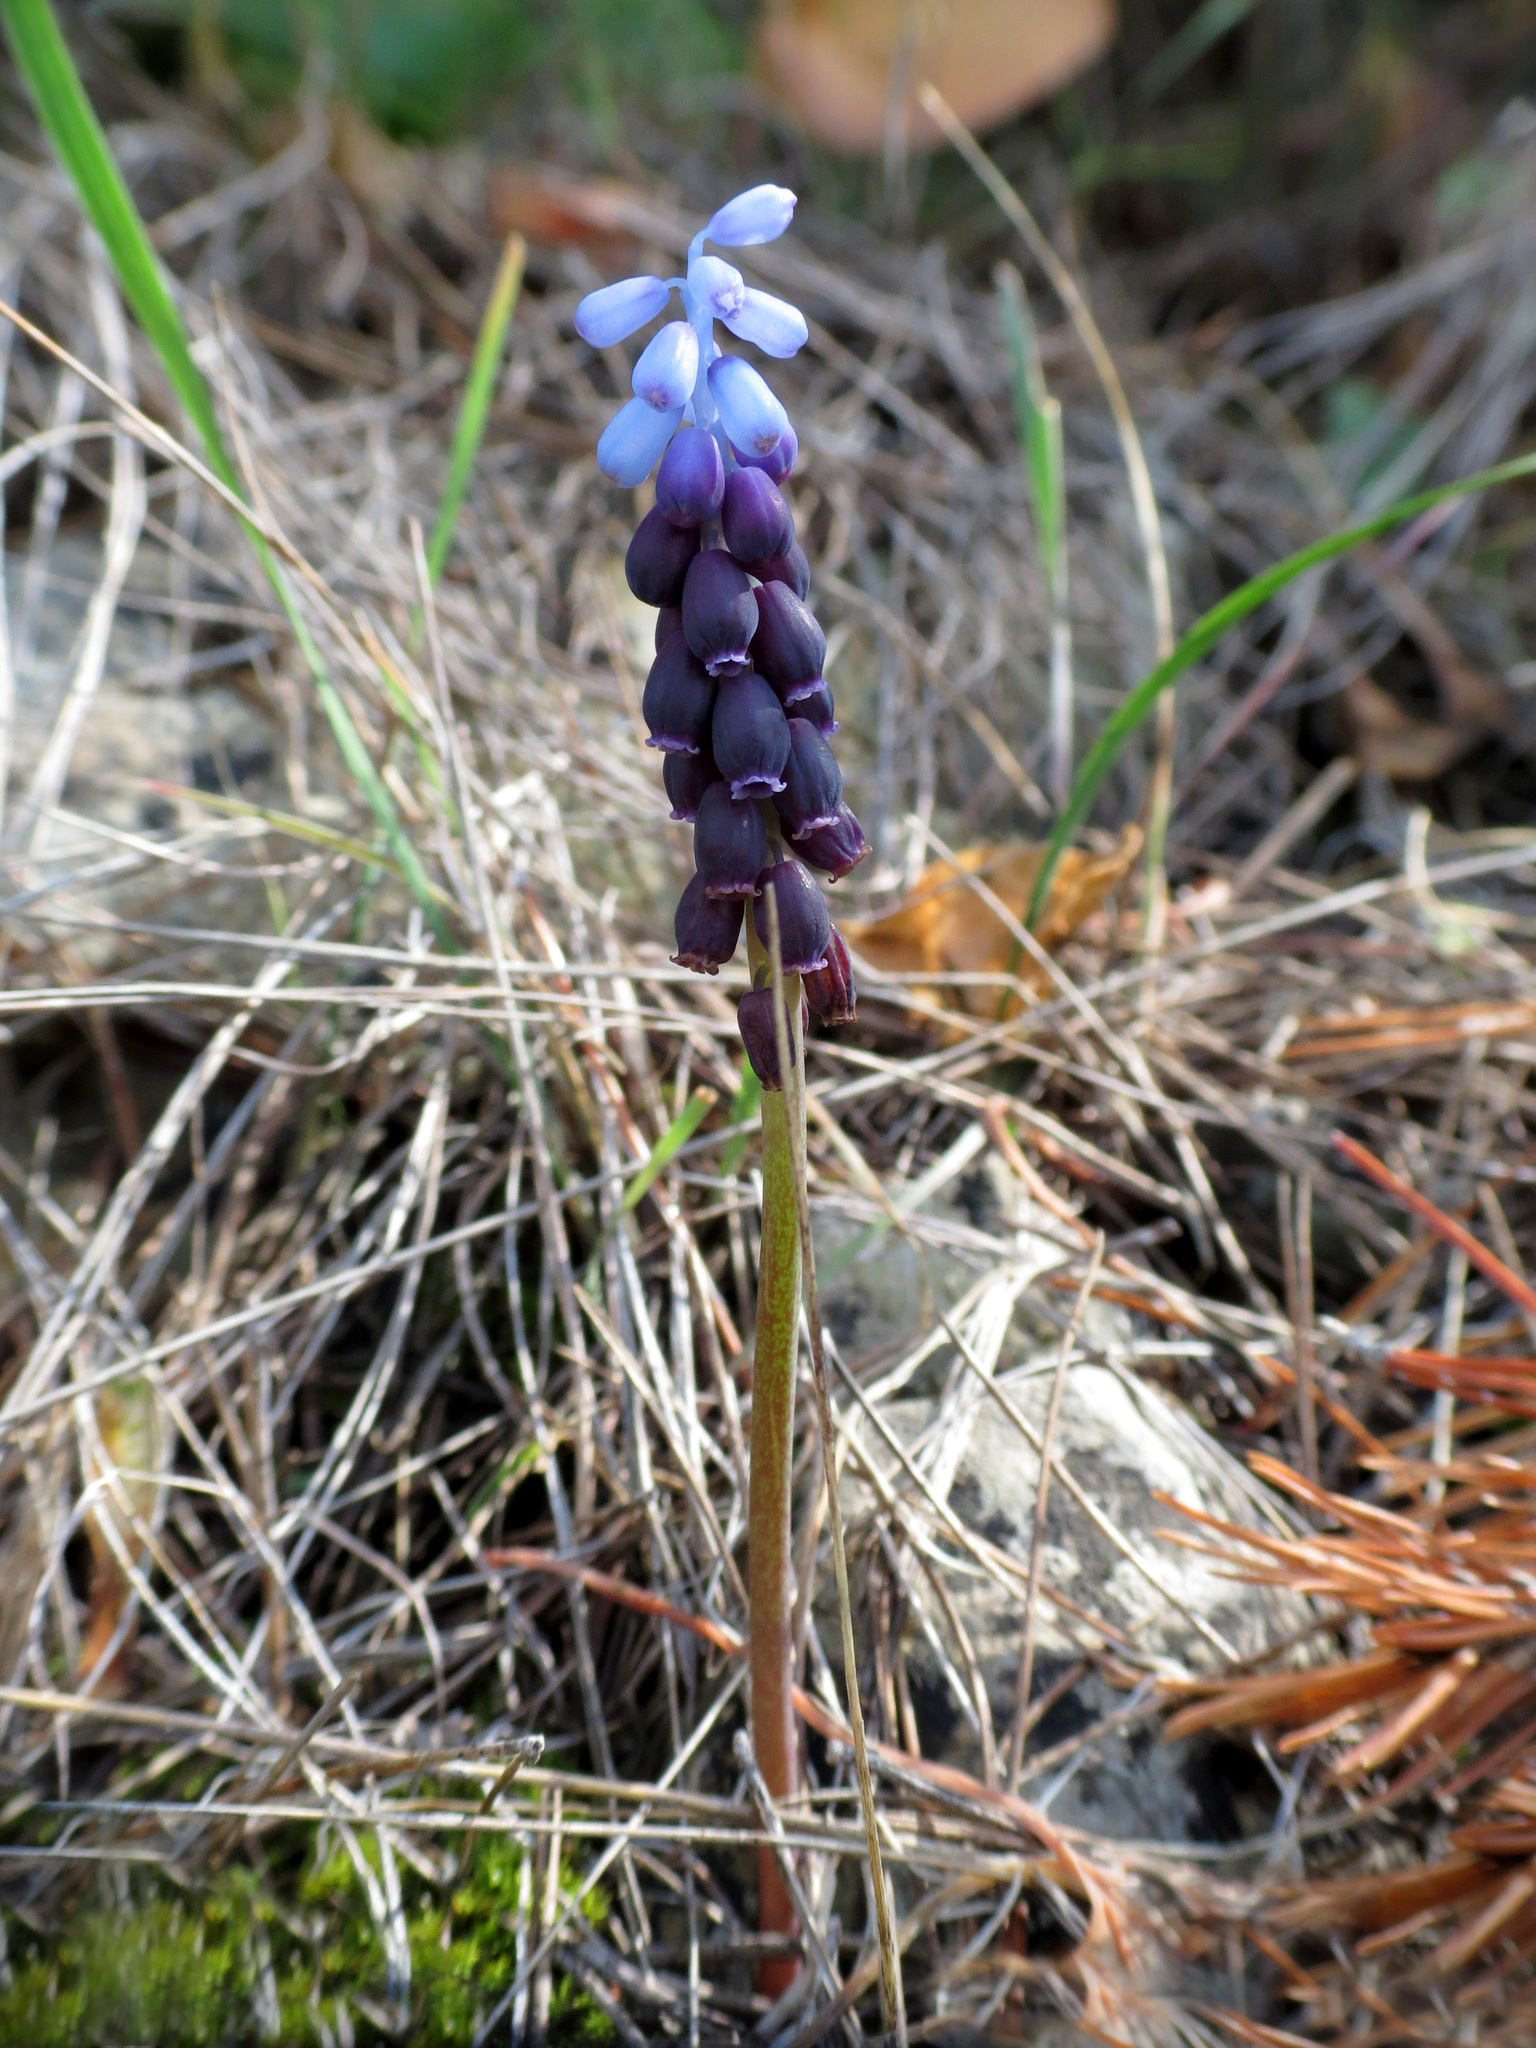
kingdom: Plantae
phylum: Tracheophyta
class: Liliopsida
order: Asparagales
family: Asparagaceae
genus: Muscari
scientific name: Muscari neglectum
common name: Grape-hyacinth
